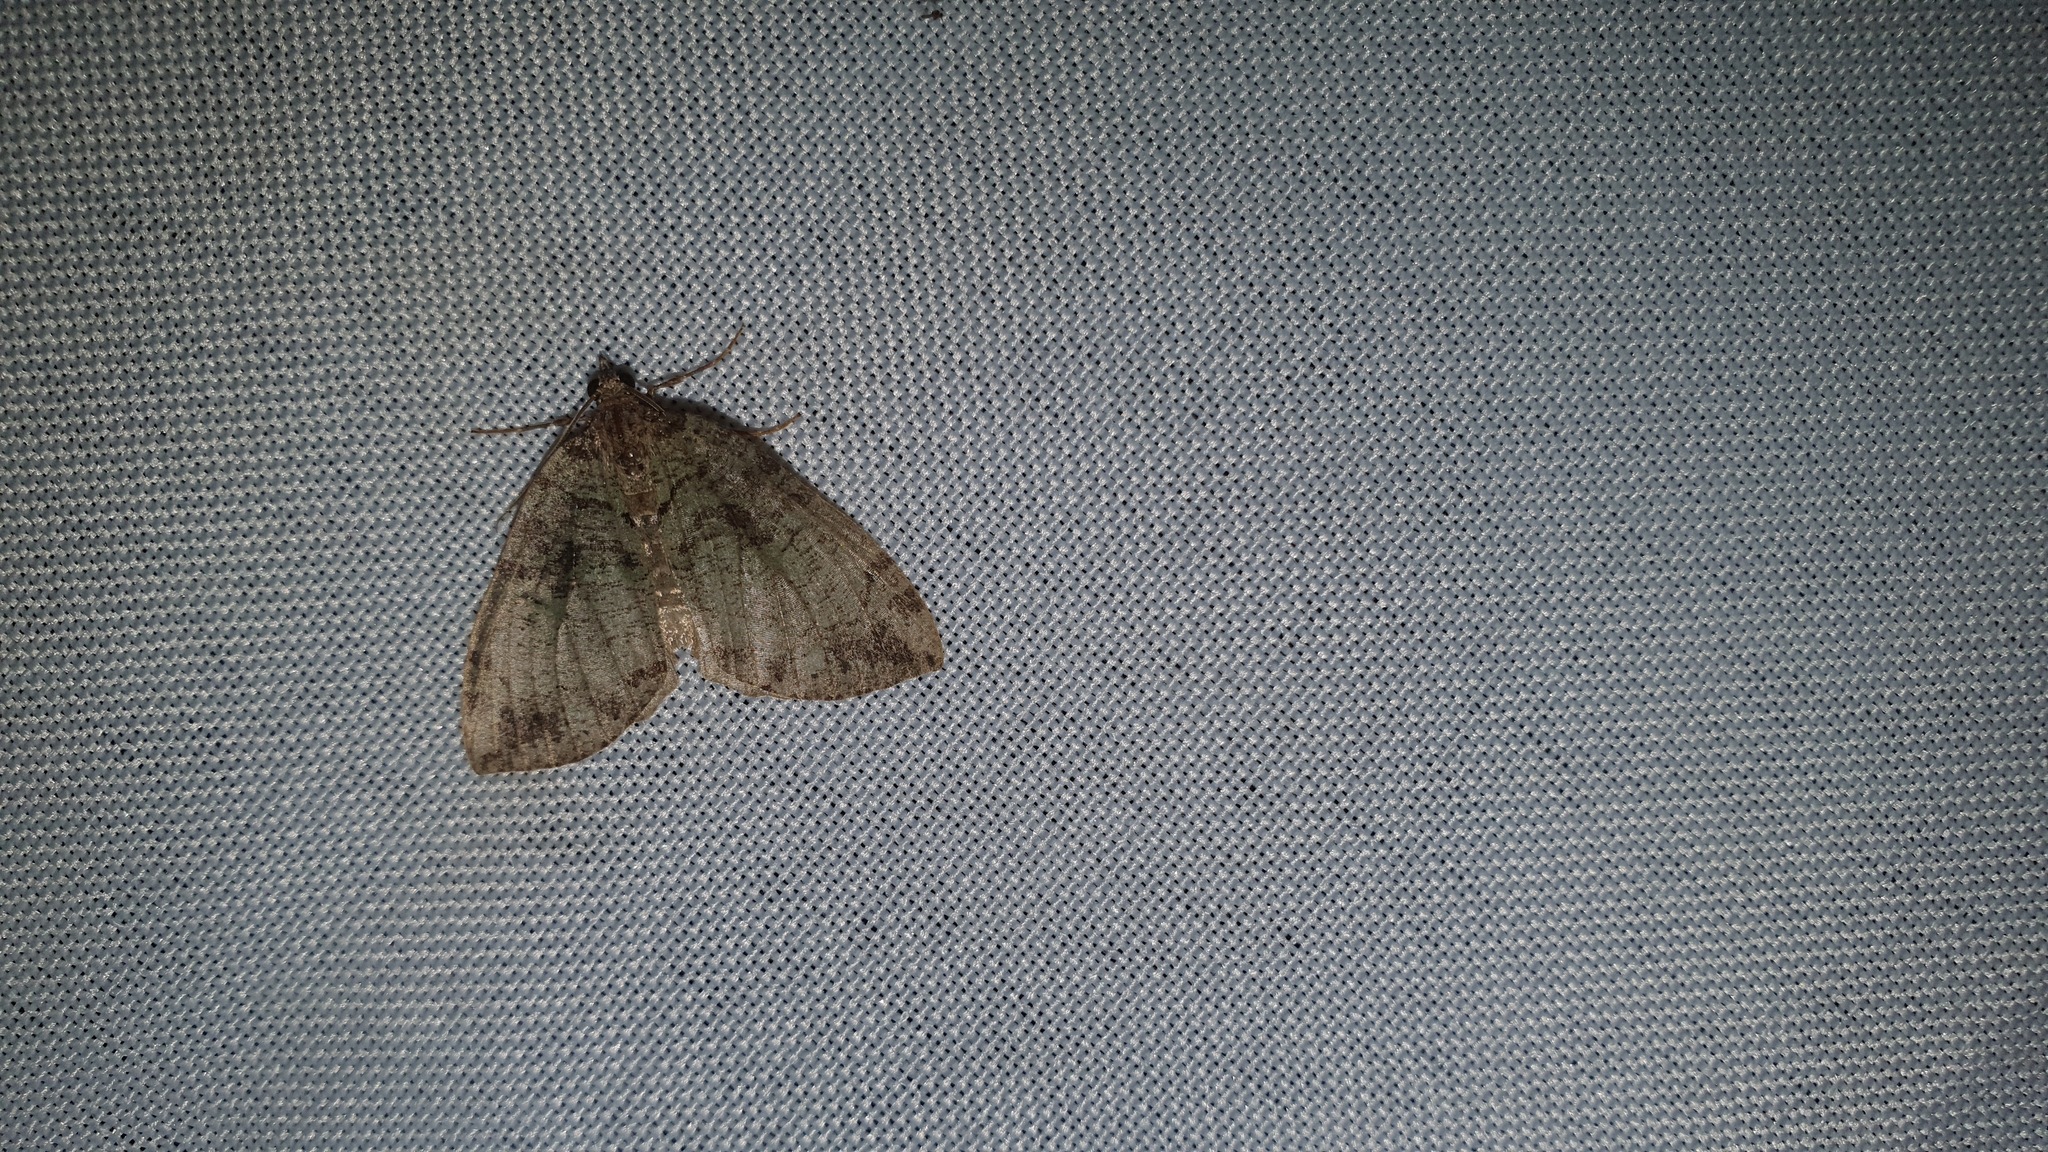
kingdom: Animalia
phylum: Arthropoda
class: Insecta
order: Lepidoptera
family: Geometridae
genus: Hydriomena
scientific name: Hydriomena furcata
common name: July highflyer
